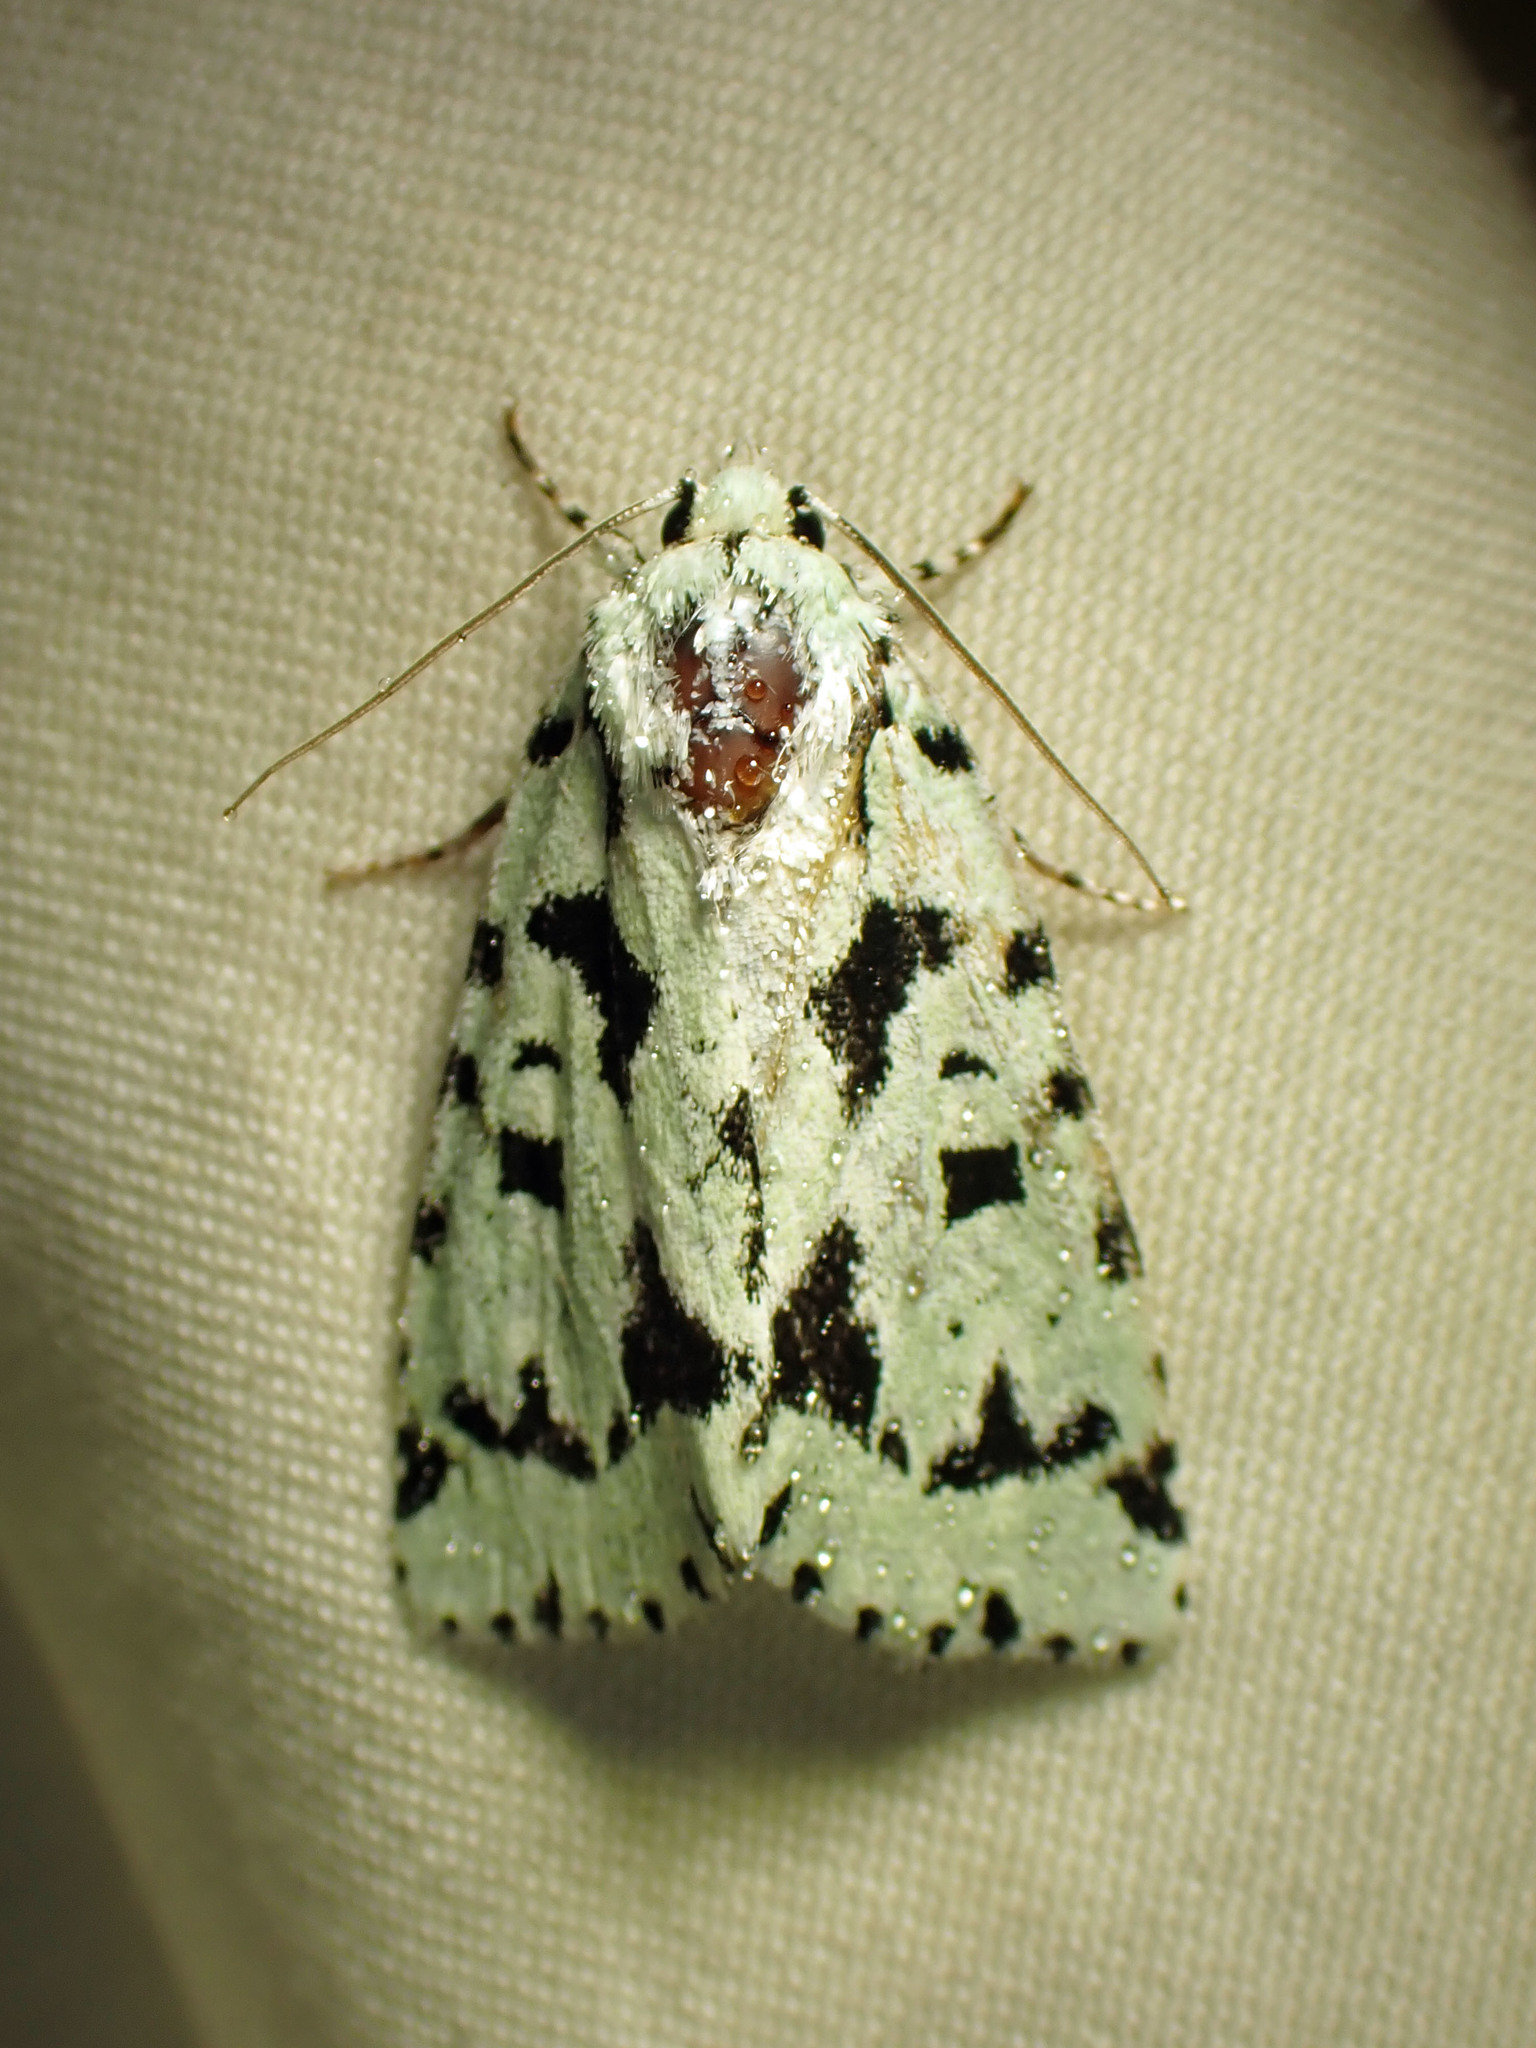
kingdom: Animalia
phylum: Arthropoda
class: Insecta
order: Lepidoptera
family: Noctuidae
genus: Acronicta
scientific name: Acronicta fallax
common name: Green marvel
